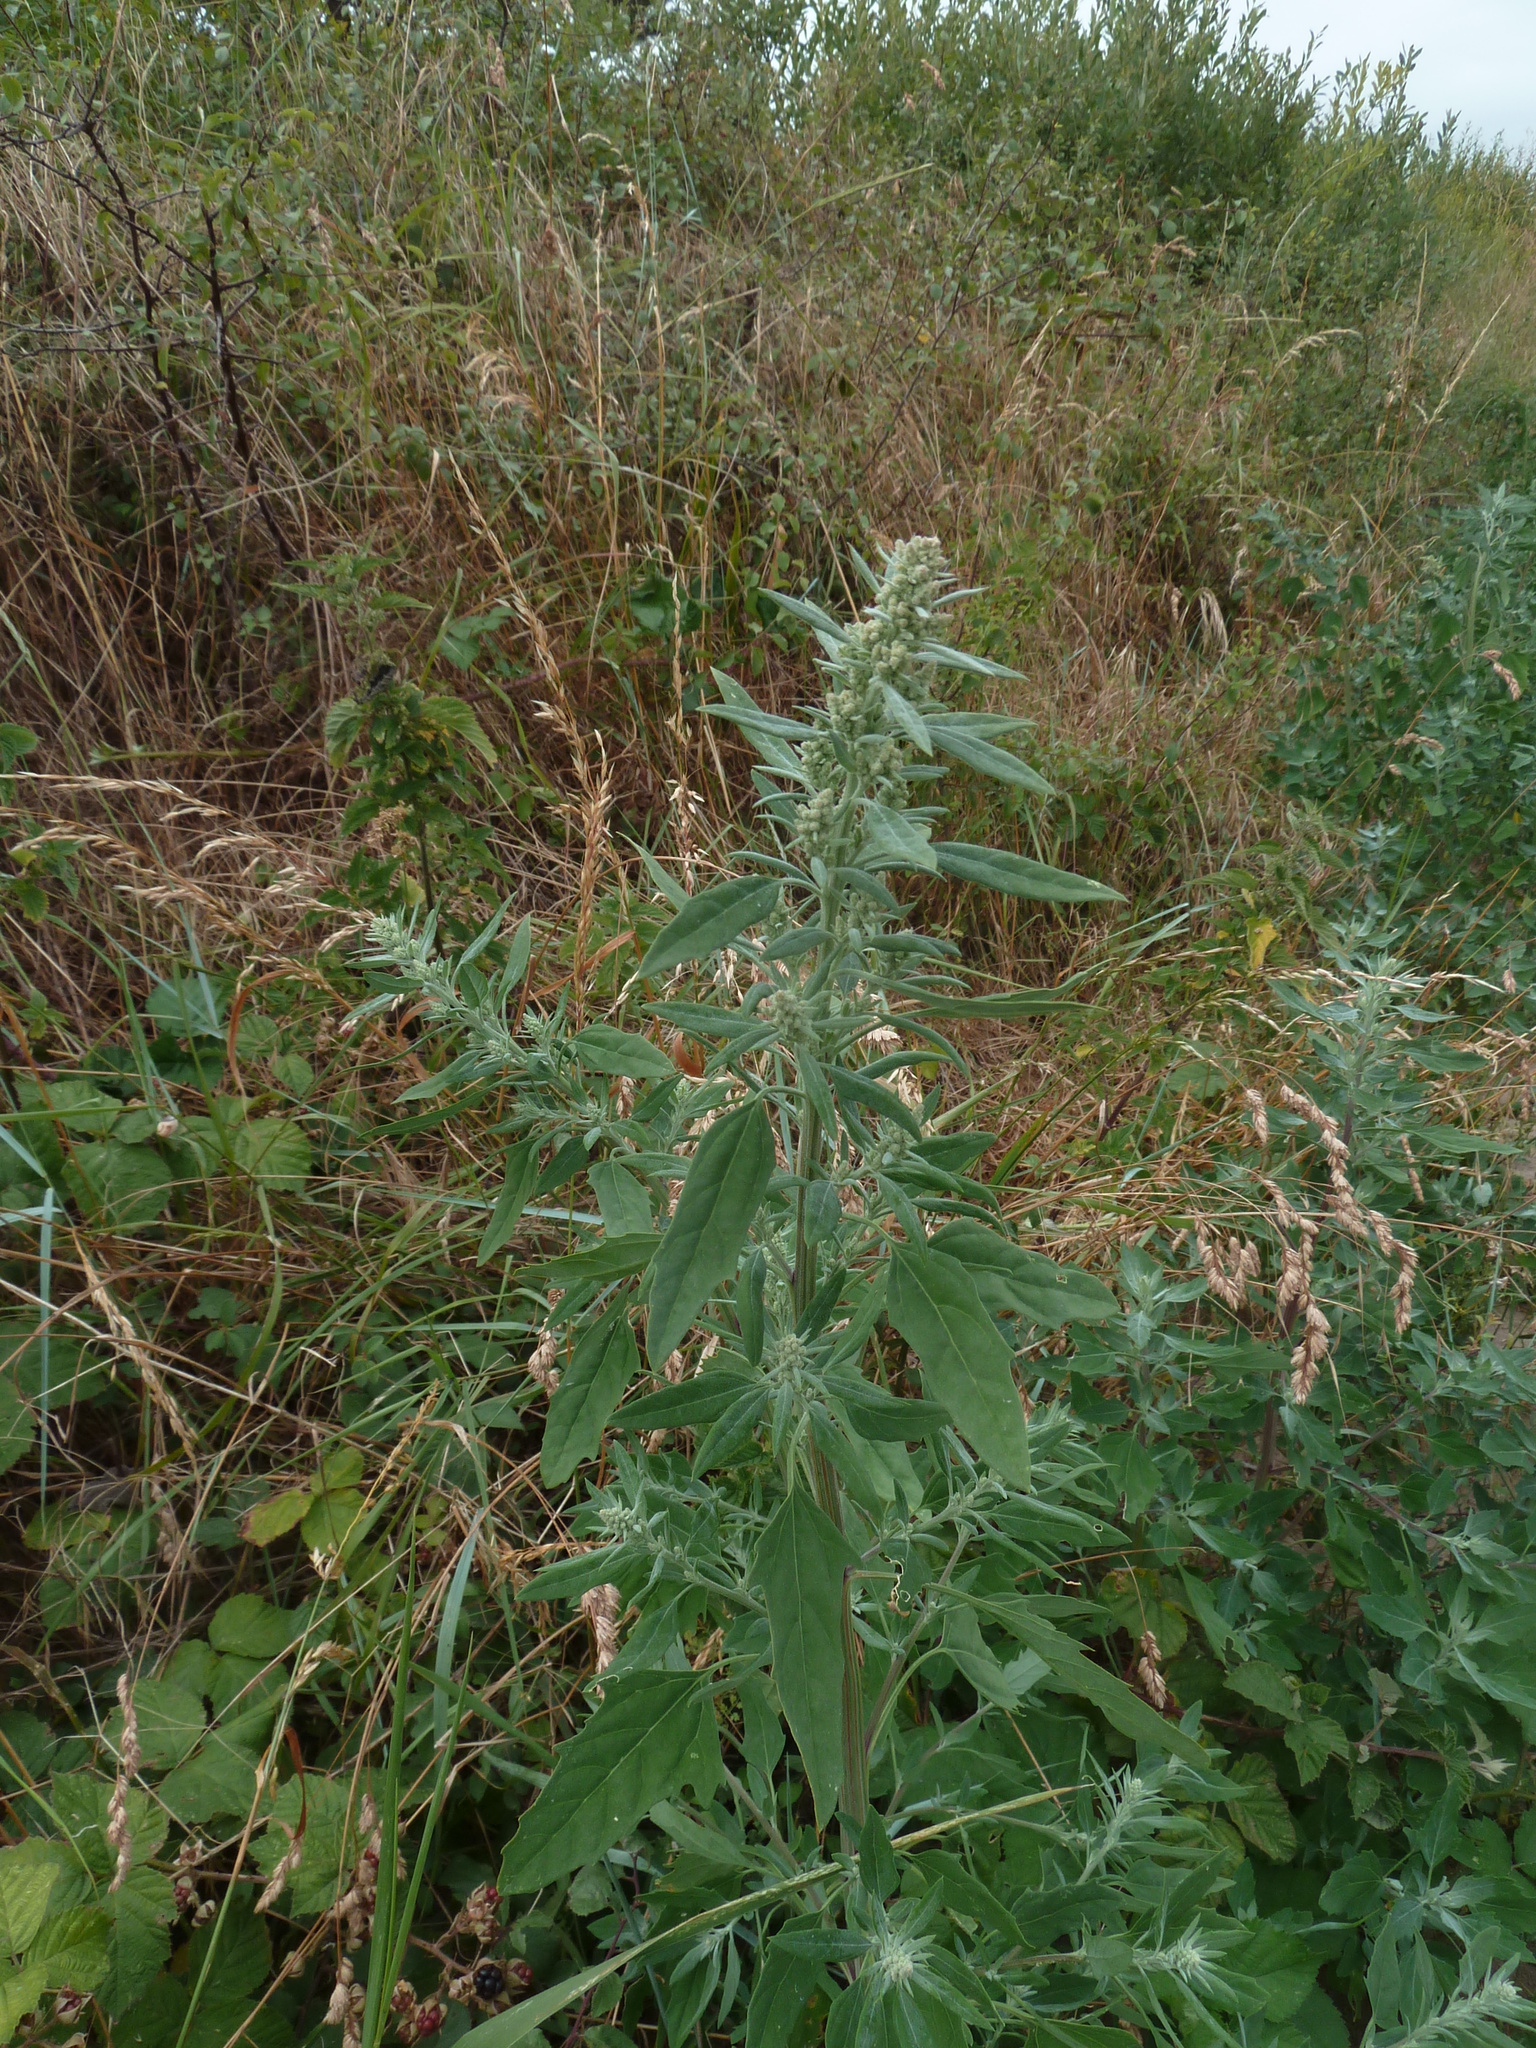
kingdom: Plantae
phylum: Tracheophyta
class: Magnoliopsida
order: Caryophyllales
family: Amaranthaceae
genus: Chenopodium
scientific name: Chenopodium album
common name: Fat-hen
